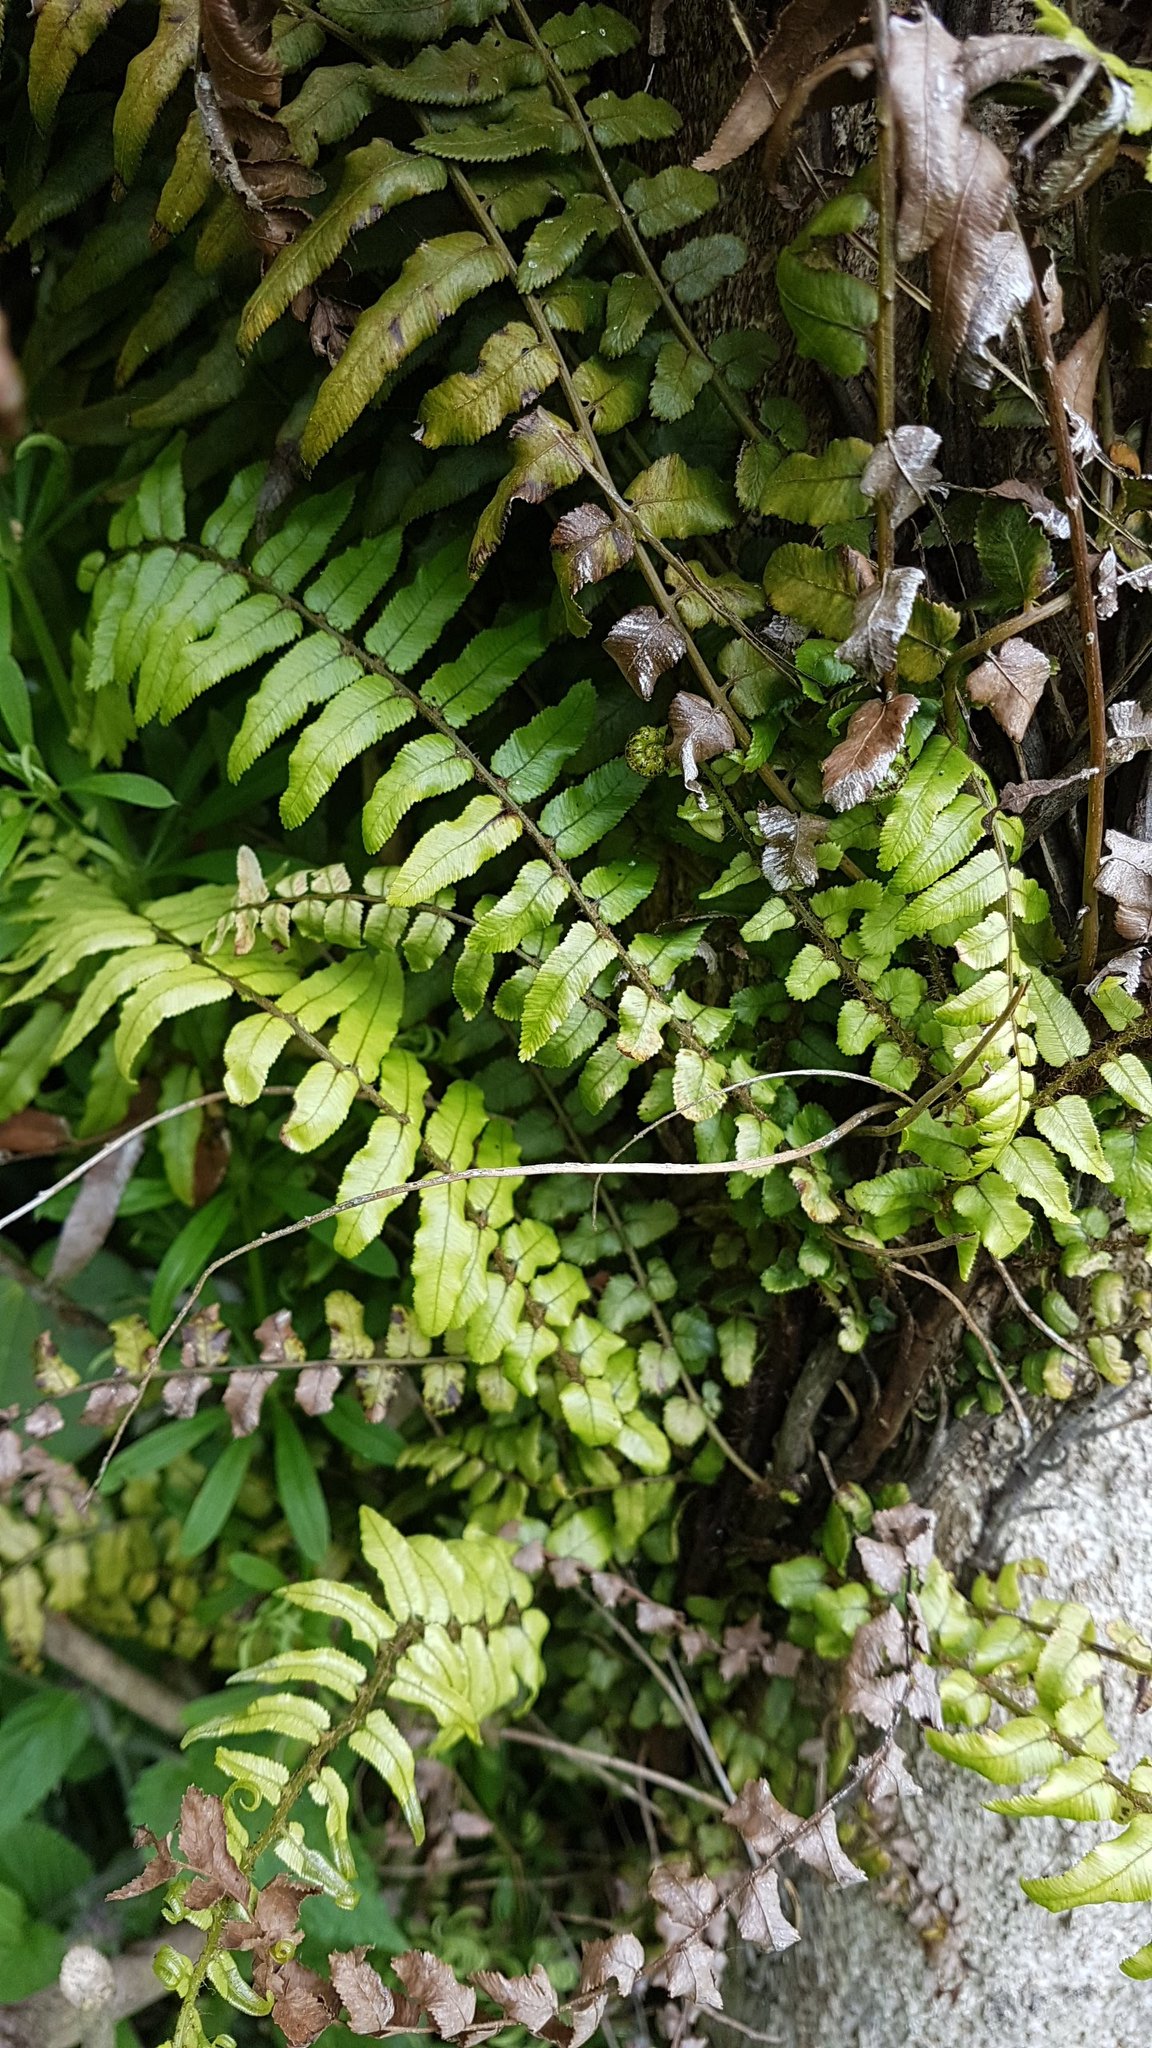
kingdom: Plantae
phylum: Tracheophyta
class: Polypodiopsida
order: Polypodiales
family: Blechnaceae
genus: Icarus
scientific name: Icarus filiformis
